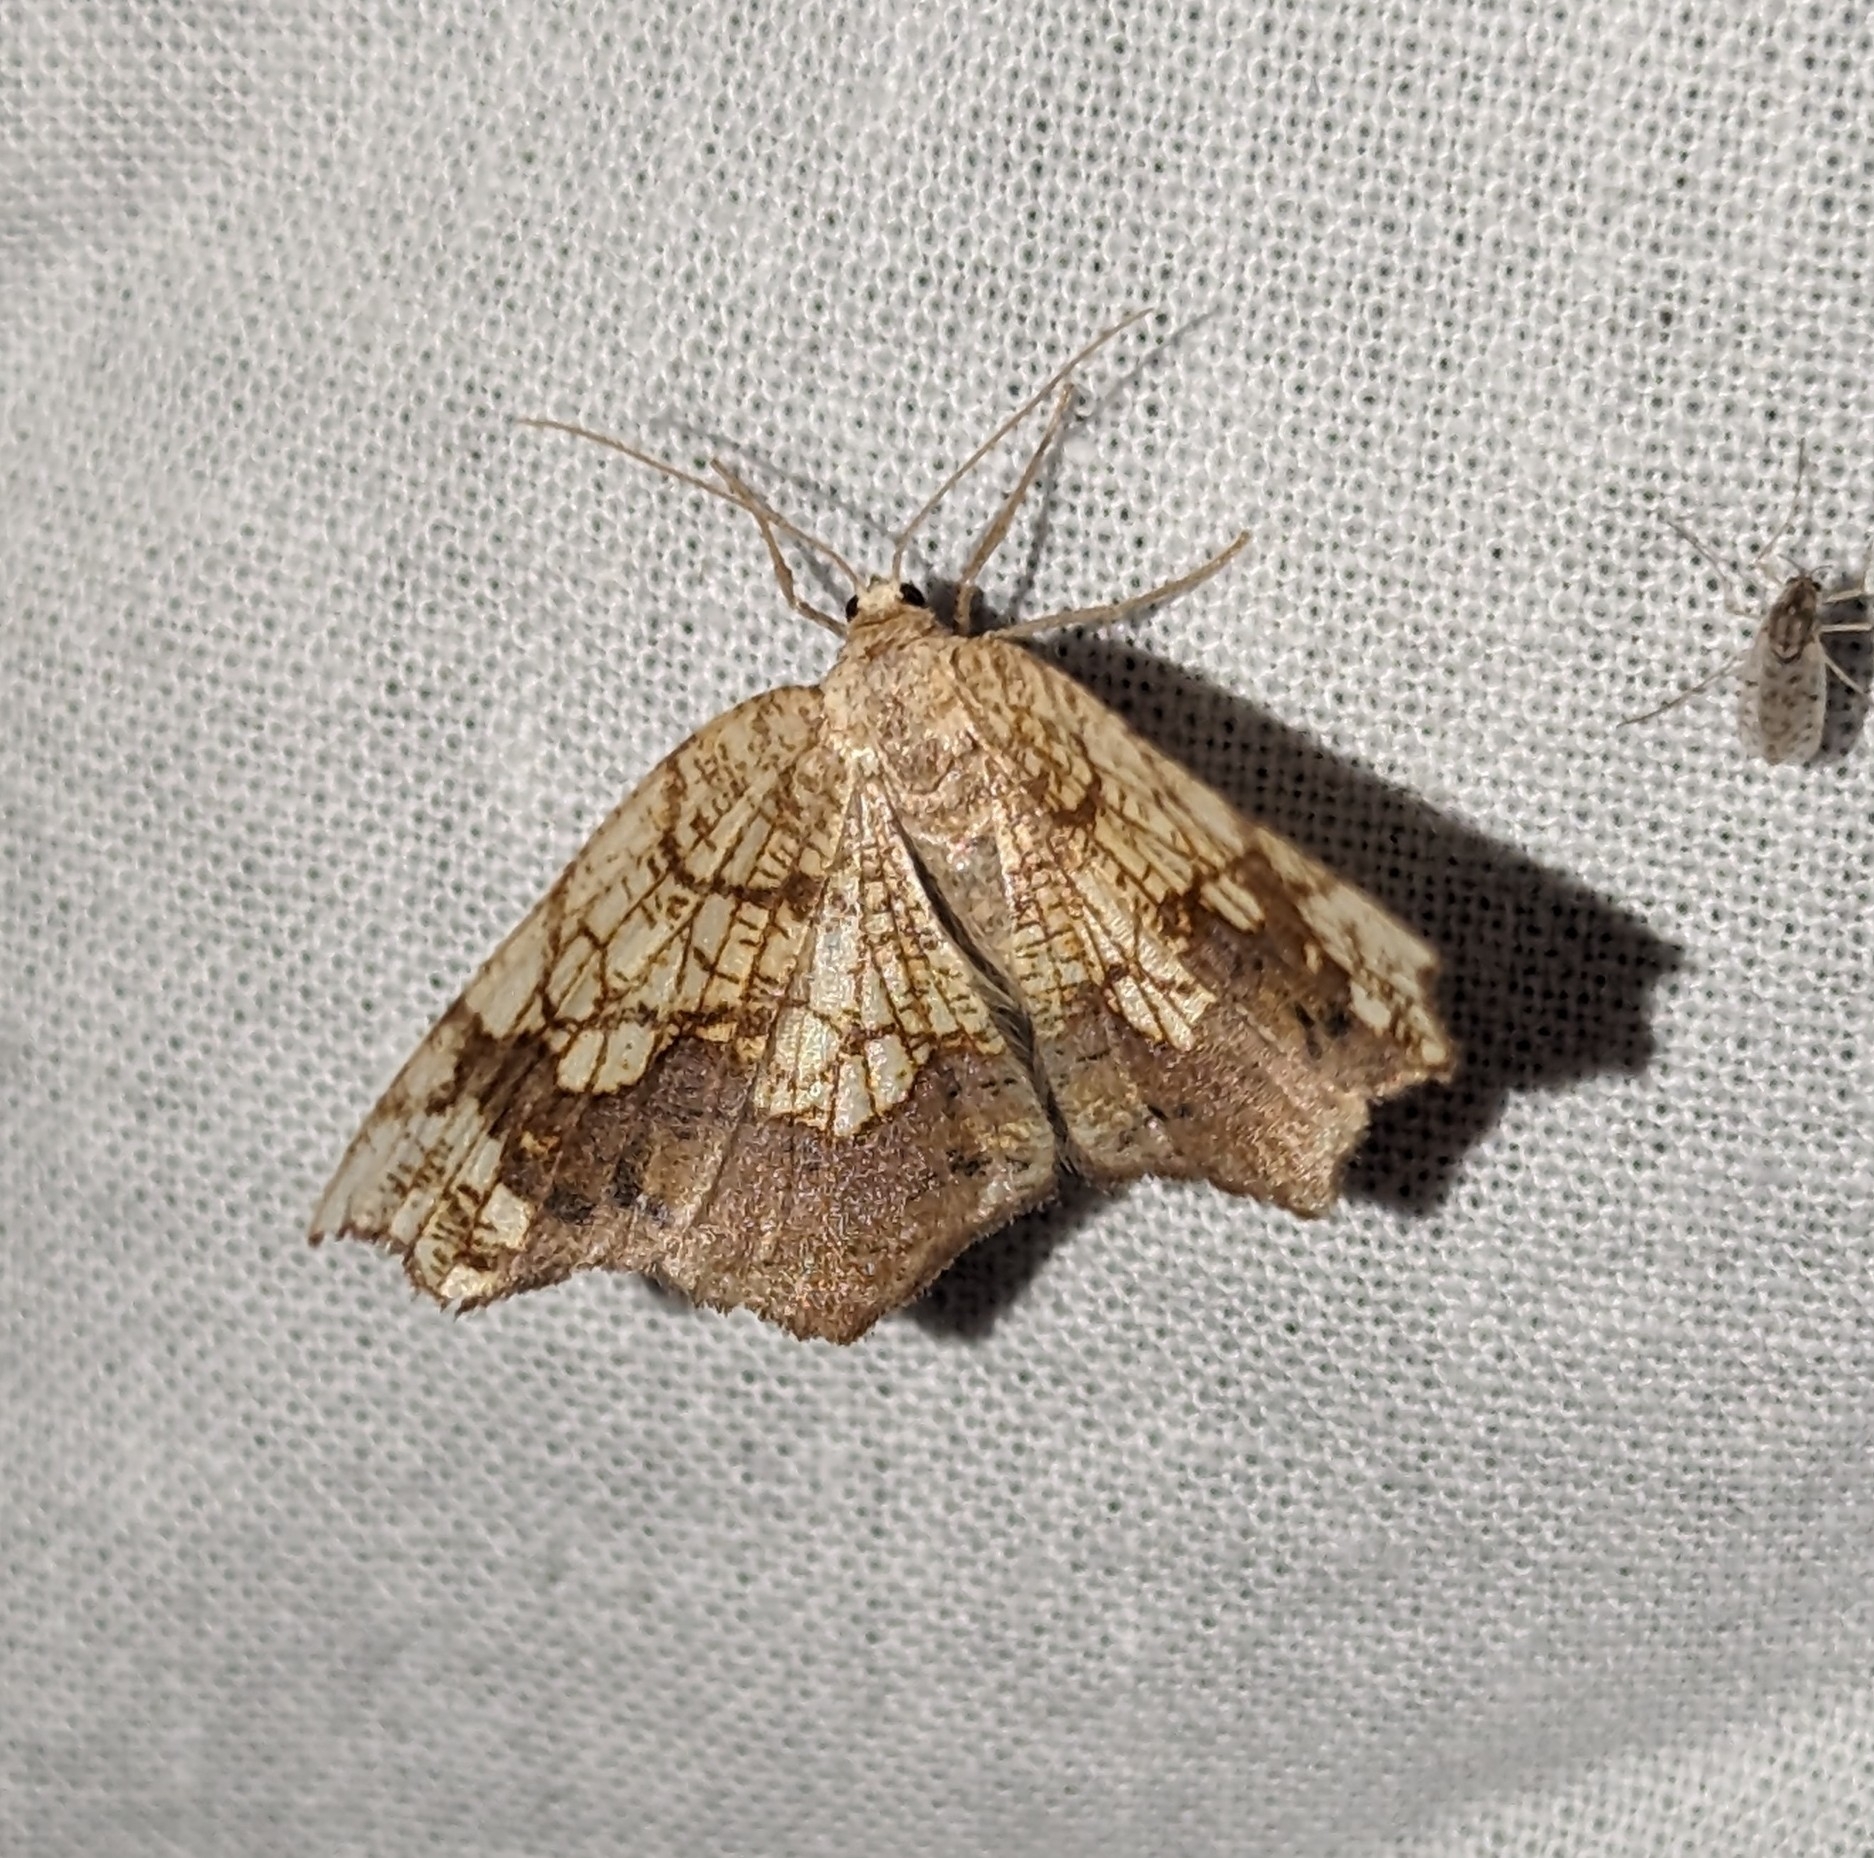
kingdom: Animalia
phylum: Arthropoda
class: Insecta
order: Lepidoptera
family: Geometridae
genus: Nematocampa
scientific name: Nematocampa resistaria
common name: Horned spanworm moth
